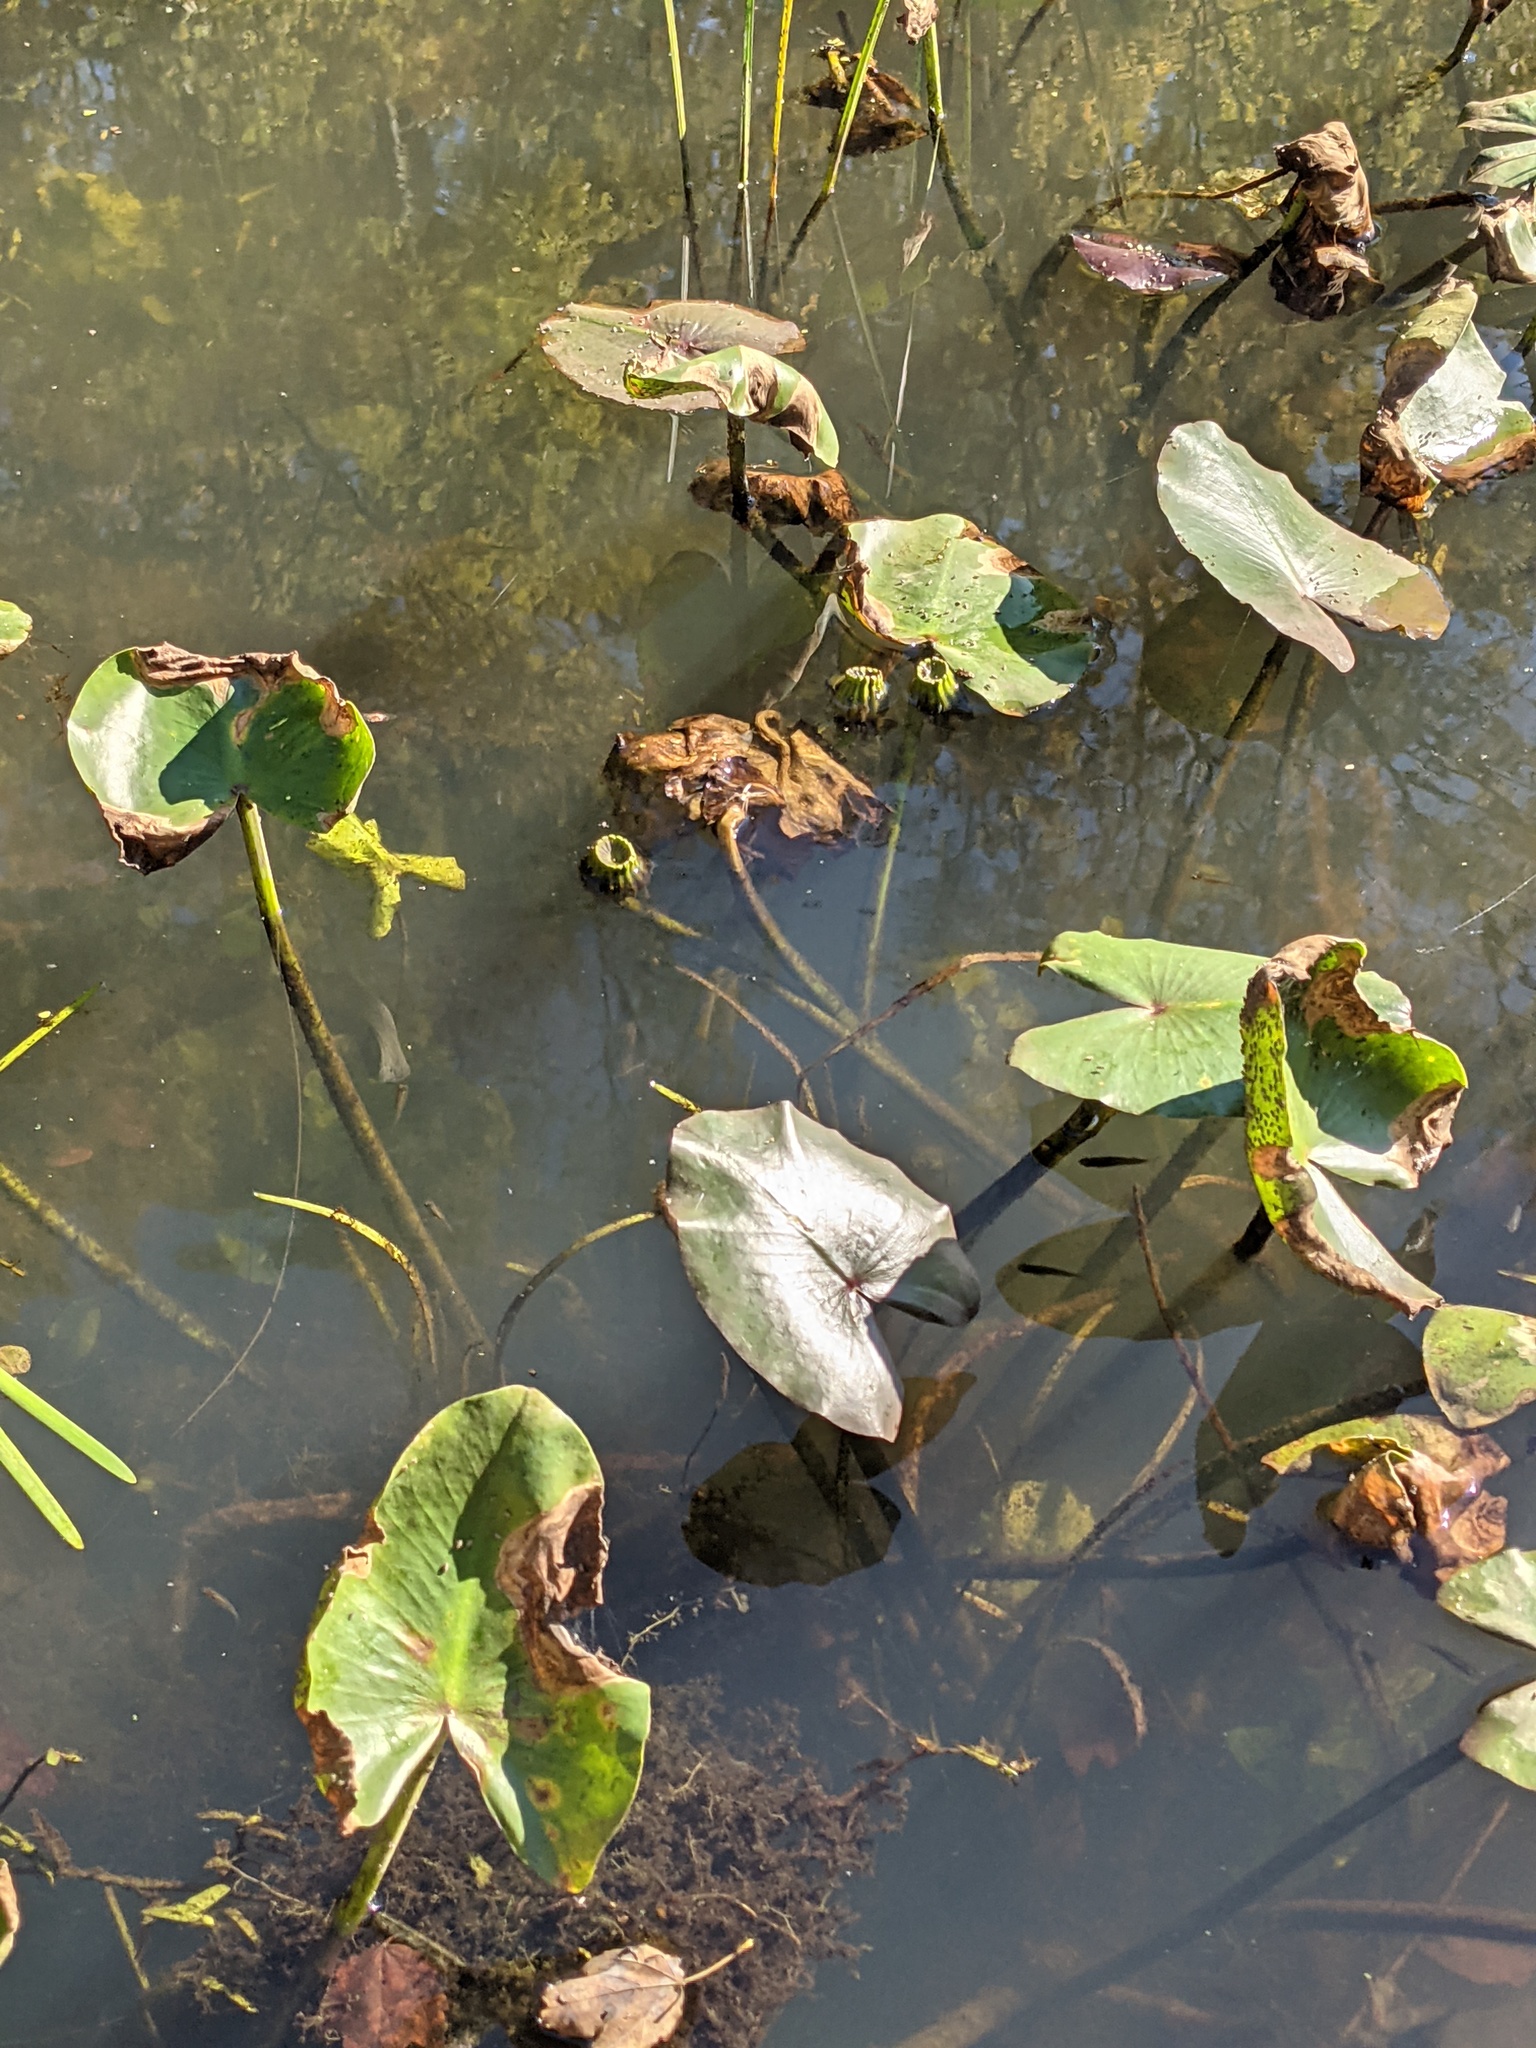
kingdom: Plantae
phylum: Tracheophyta
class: Magnoliopsida
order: Nymphaeales
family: Nymphaeaceae
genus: Nuphar
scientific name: Nuphar advena
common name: Spatter-dock
